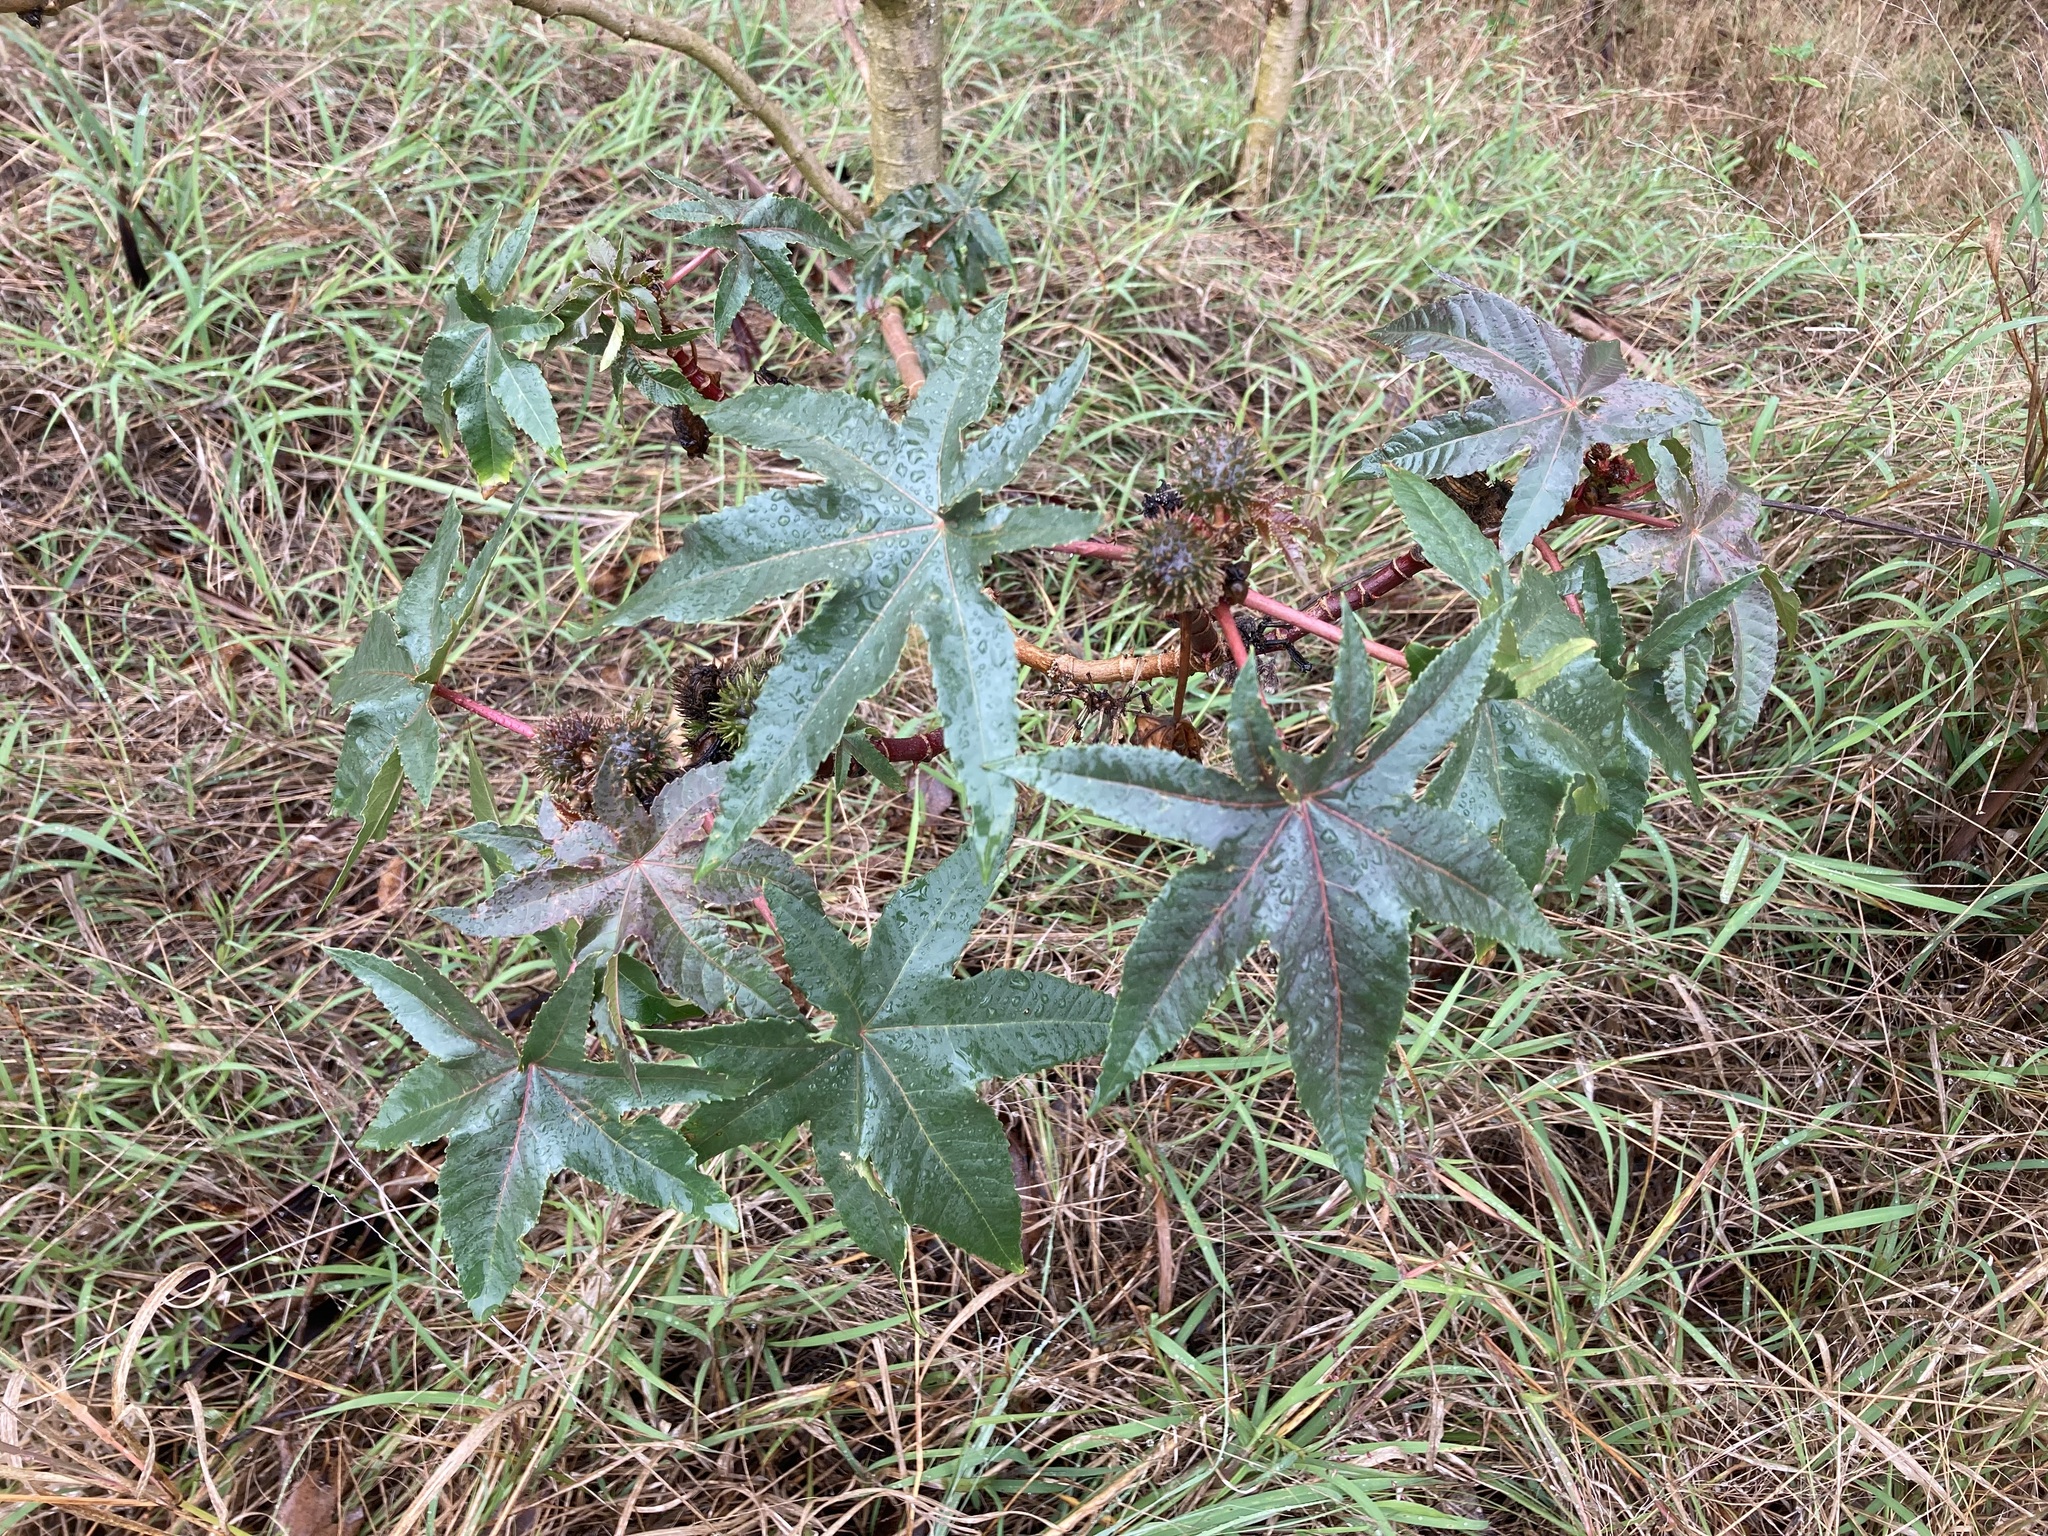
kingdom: Plantae
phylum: Tracheophyta
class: Magnoliopsida
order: Malpighiales
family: Euphorbiaceae
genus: Ricinus
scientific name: Ricinus communis
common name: Castor-oil-plant
